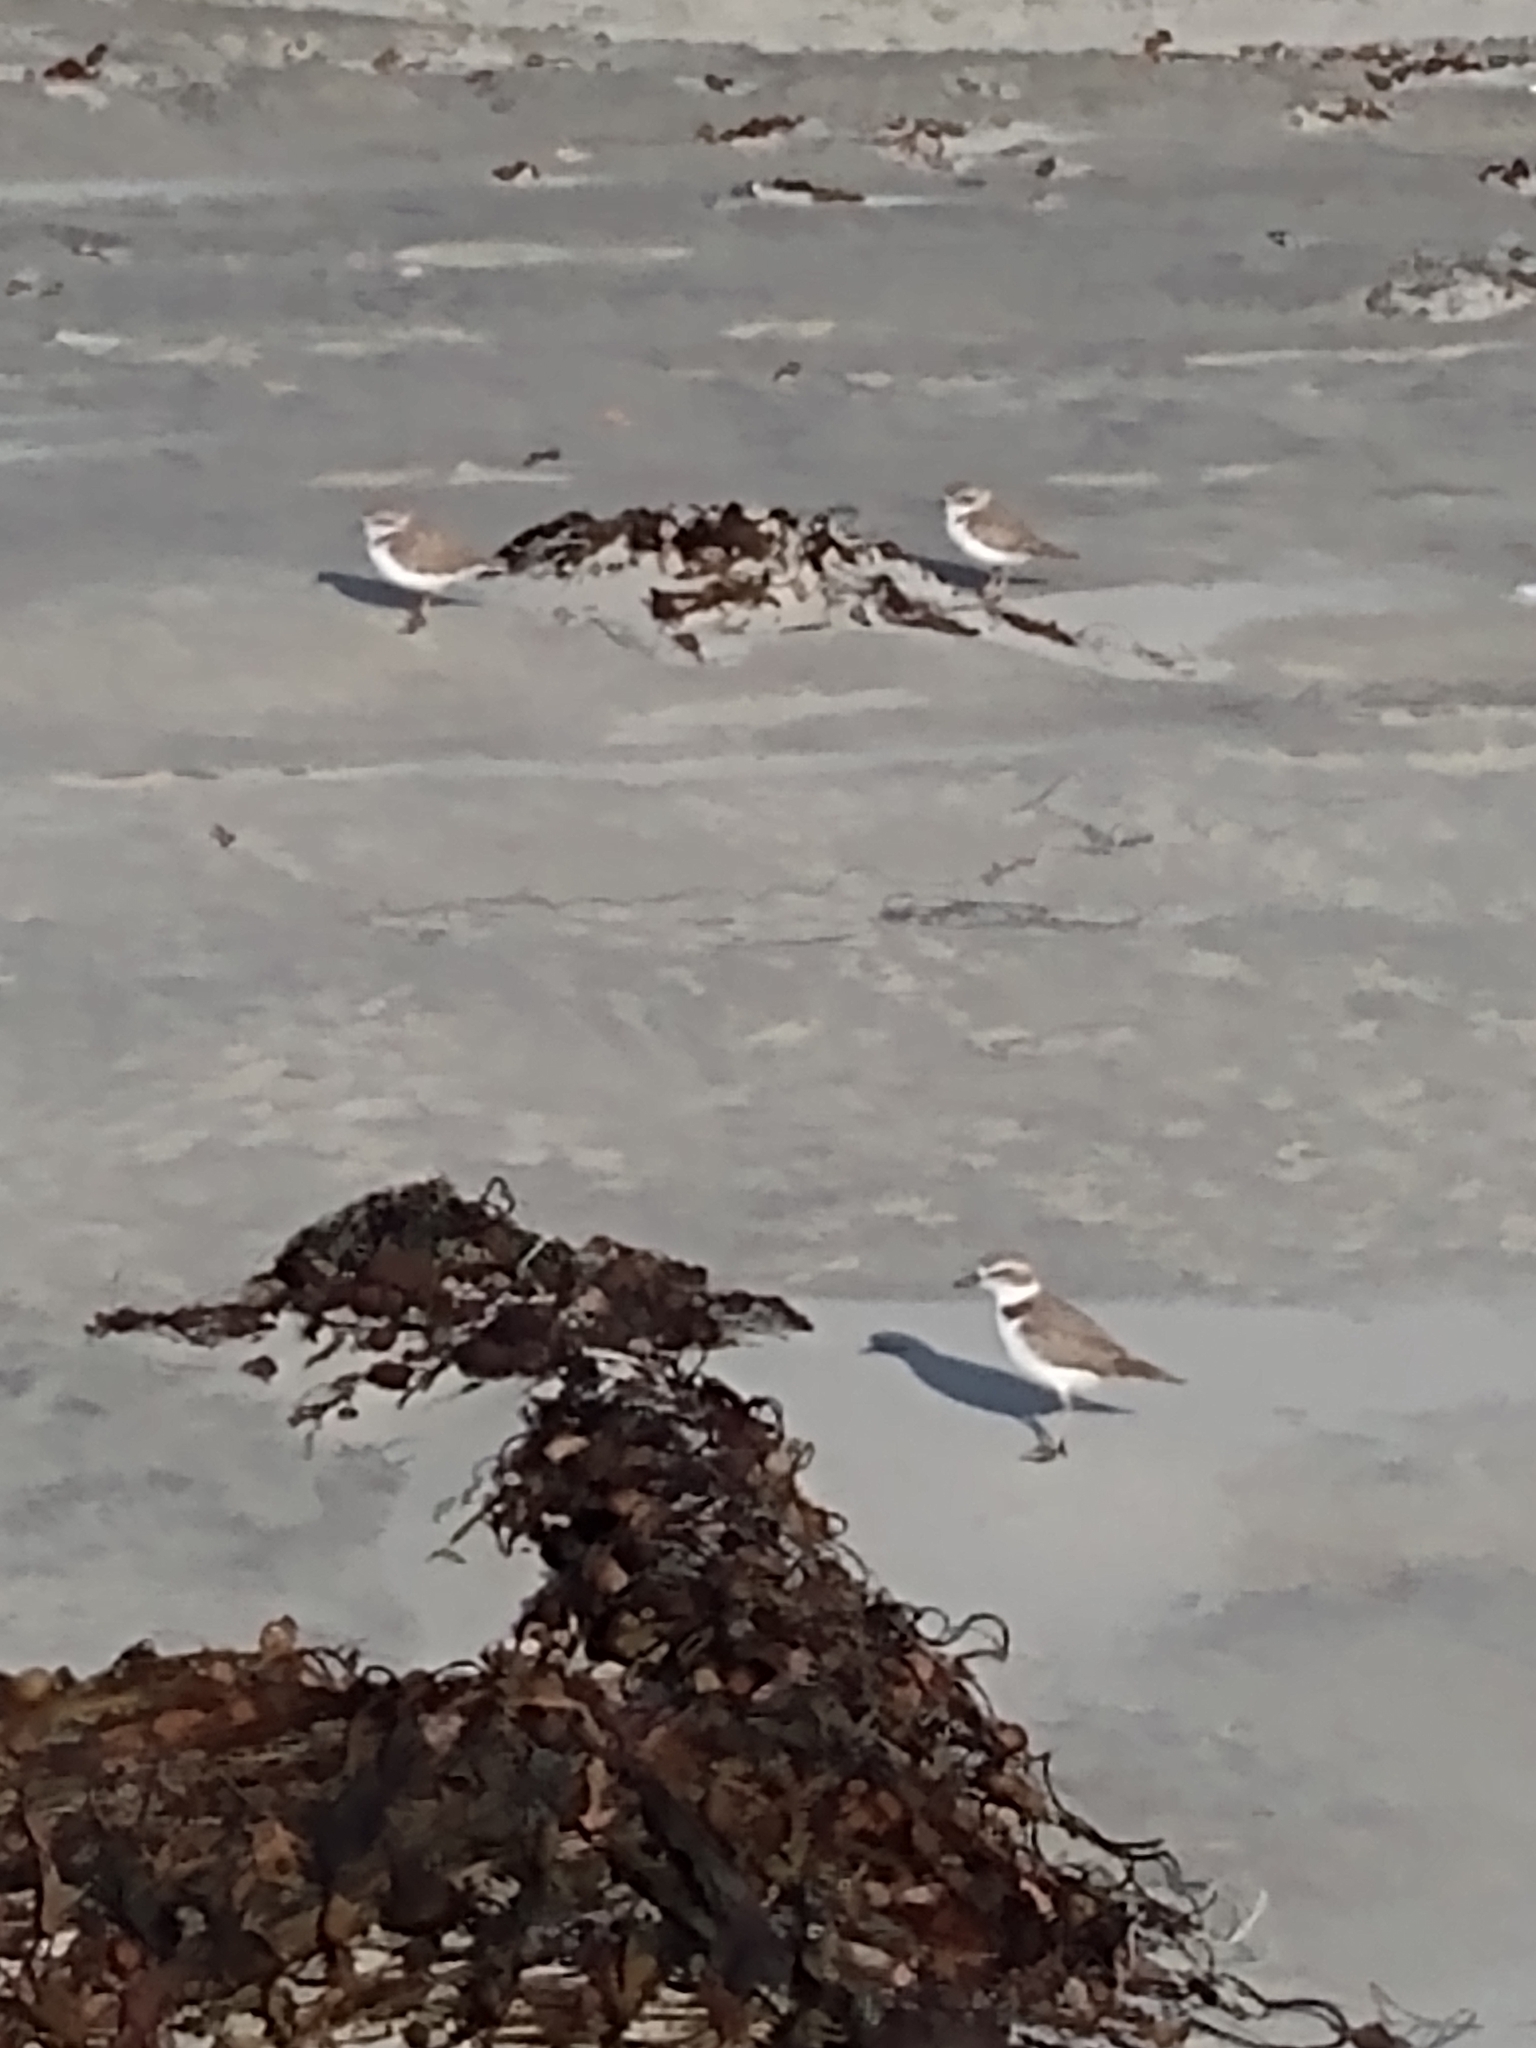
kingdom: Animalia
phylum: Chordata
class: Aves
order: Charadriiformes
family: Charadriidae
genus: Anarhynchus
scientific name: Anarhynchus
